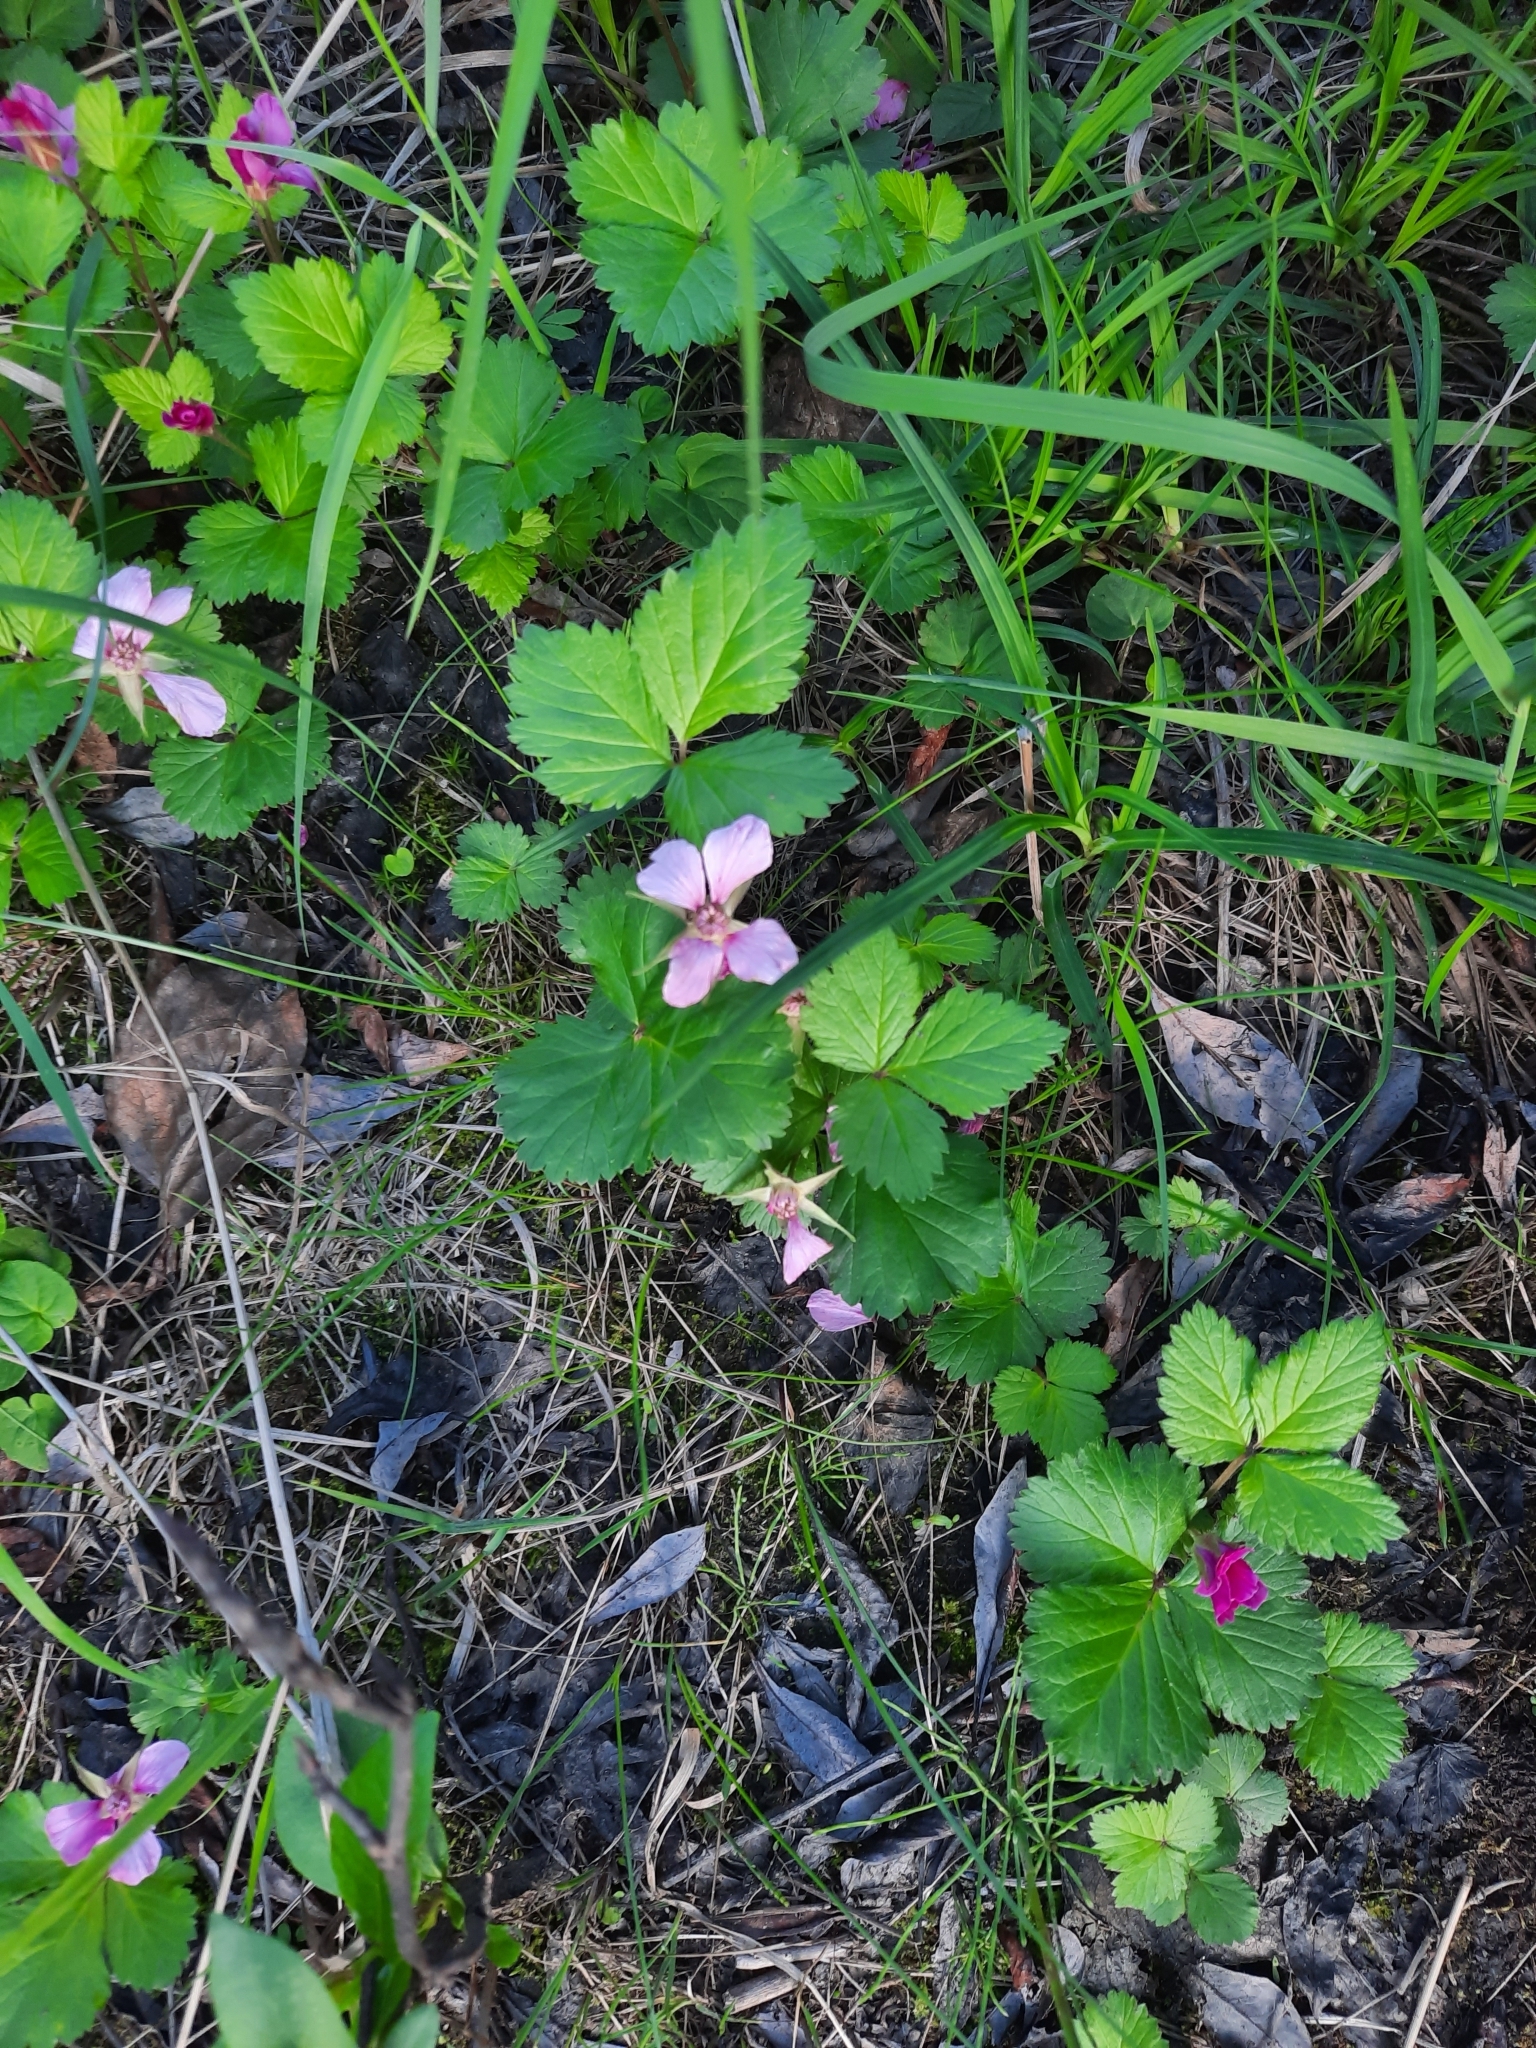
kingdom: Plantae
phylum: Tracheophyta
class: Magnoliopsida
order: Rosales
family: Rosaceae
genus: Rubus
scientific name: Rubus arcticus
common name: Arctic bramble
